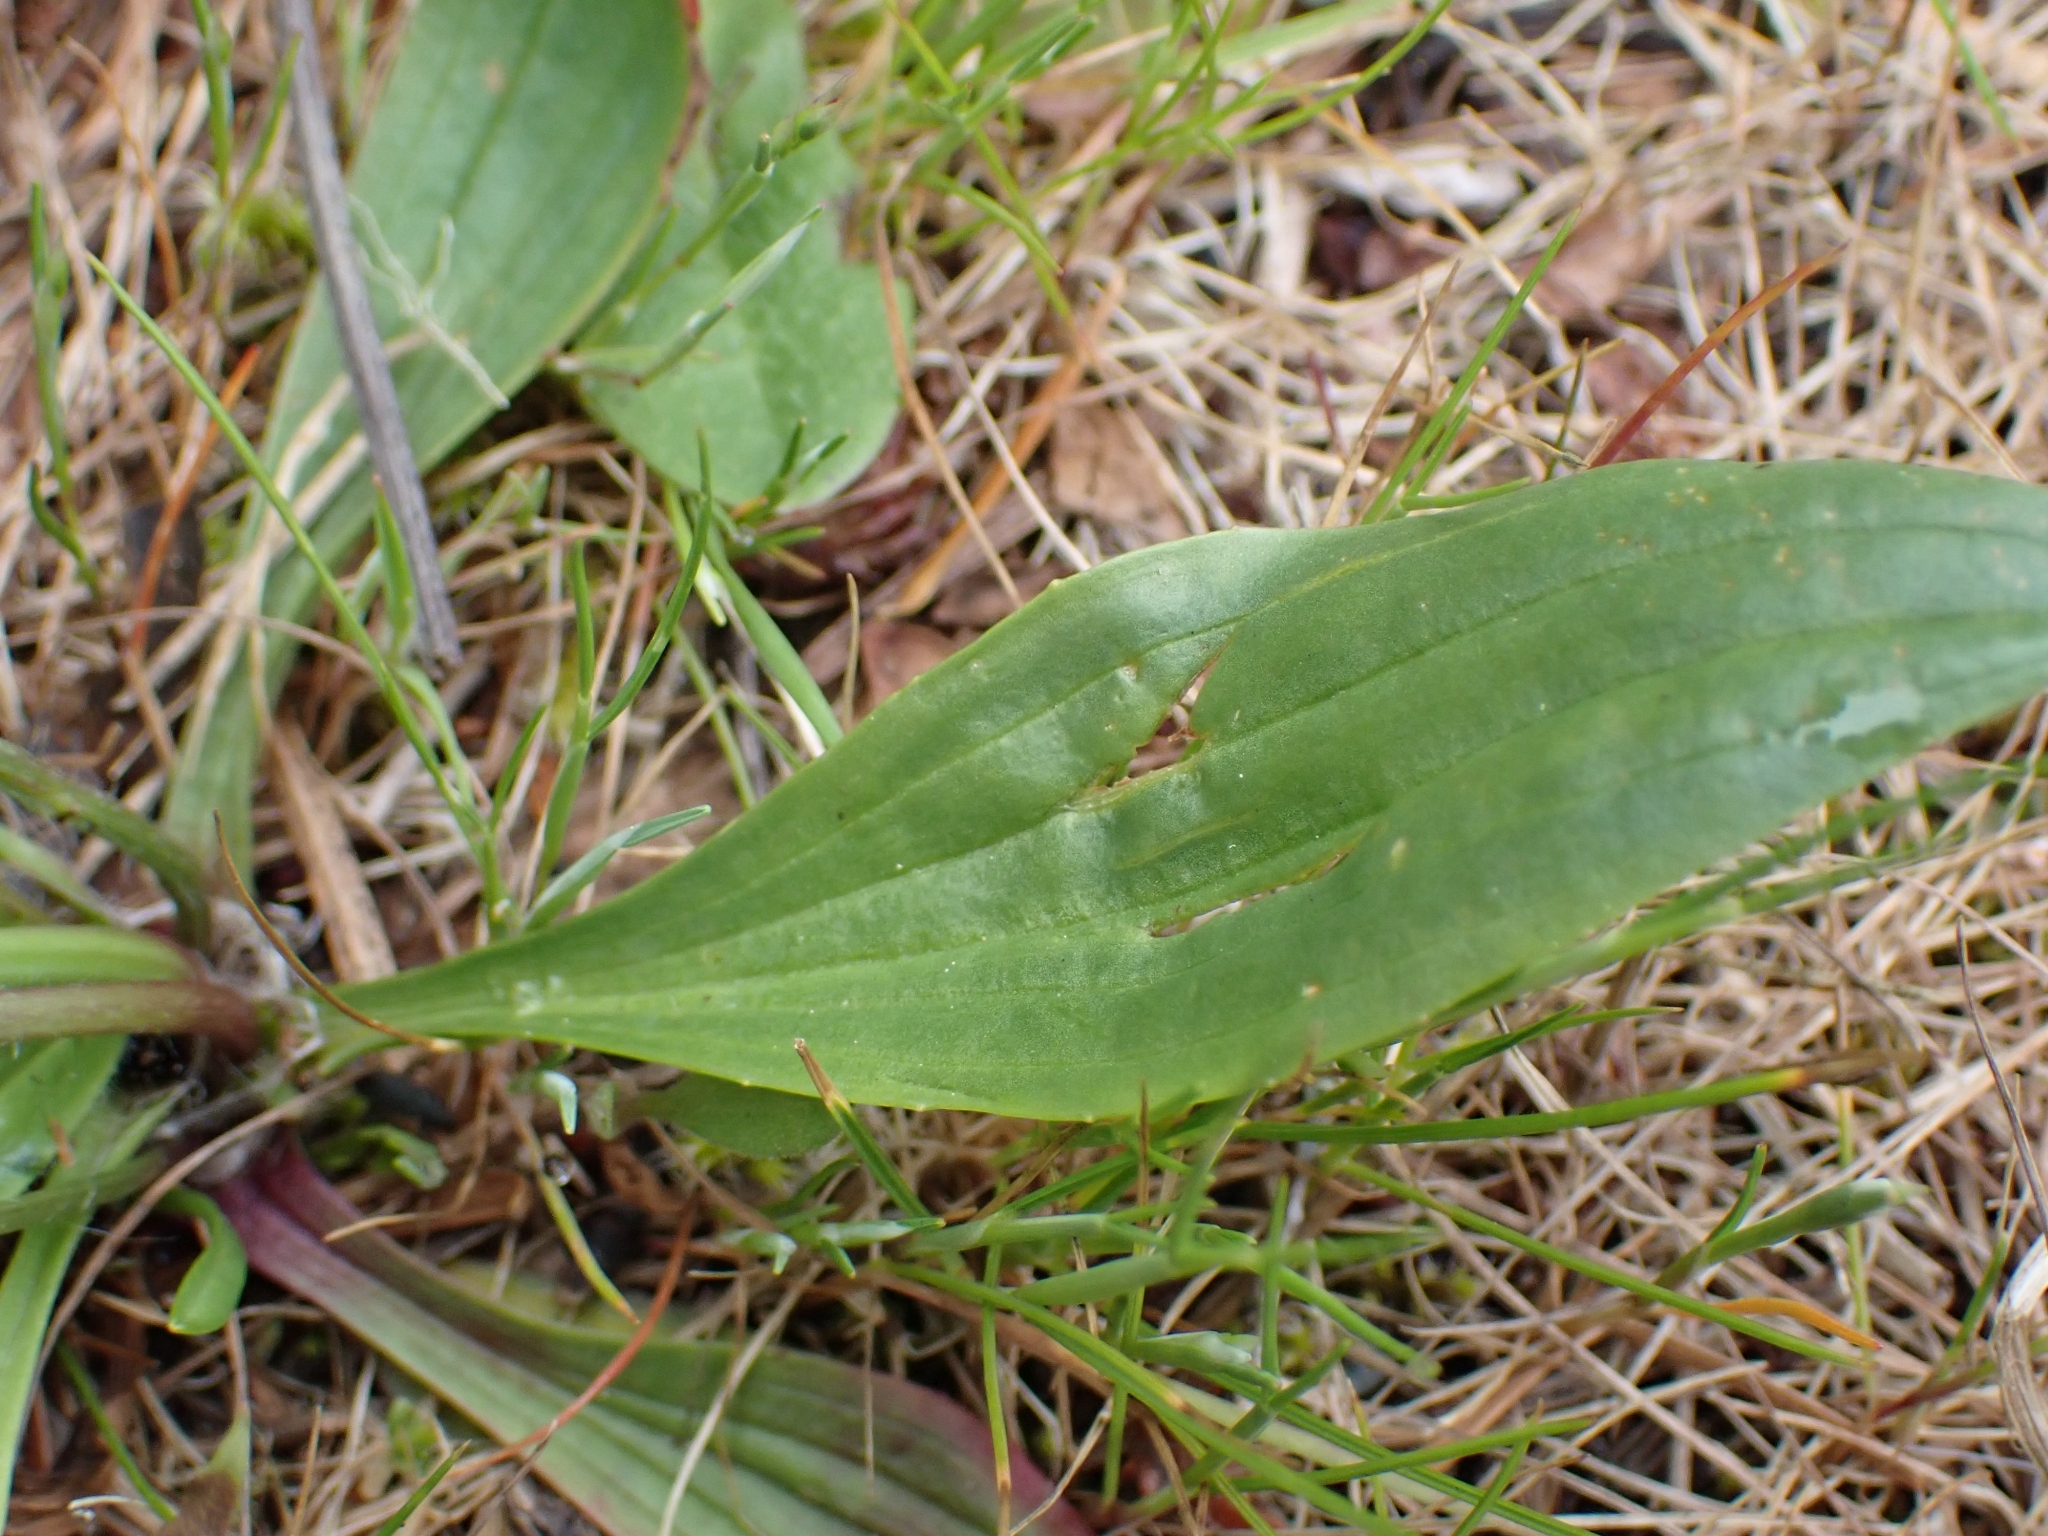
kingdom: Plantae
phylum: Tracheophyta
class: Magnoliopsida
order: Lamiales
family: Plantaginaceae
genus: Plantago
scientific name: Plantago lanceolata
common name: Ribwort plantain
